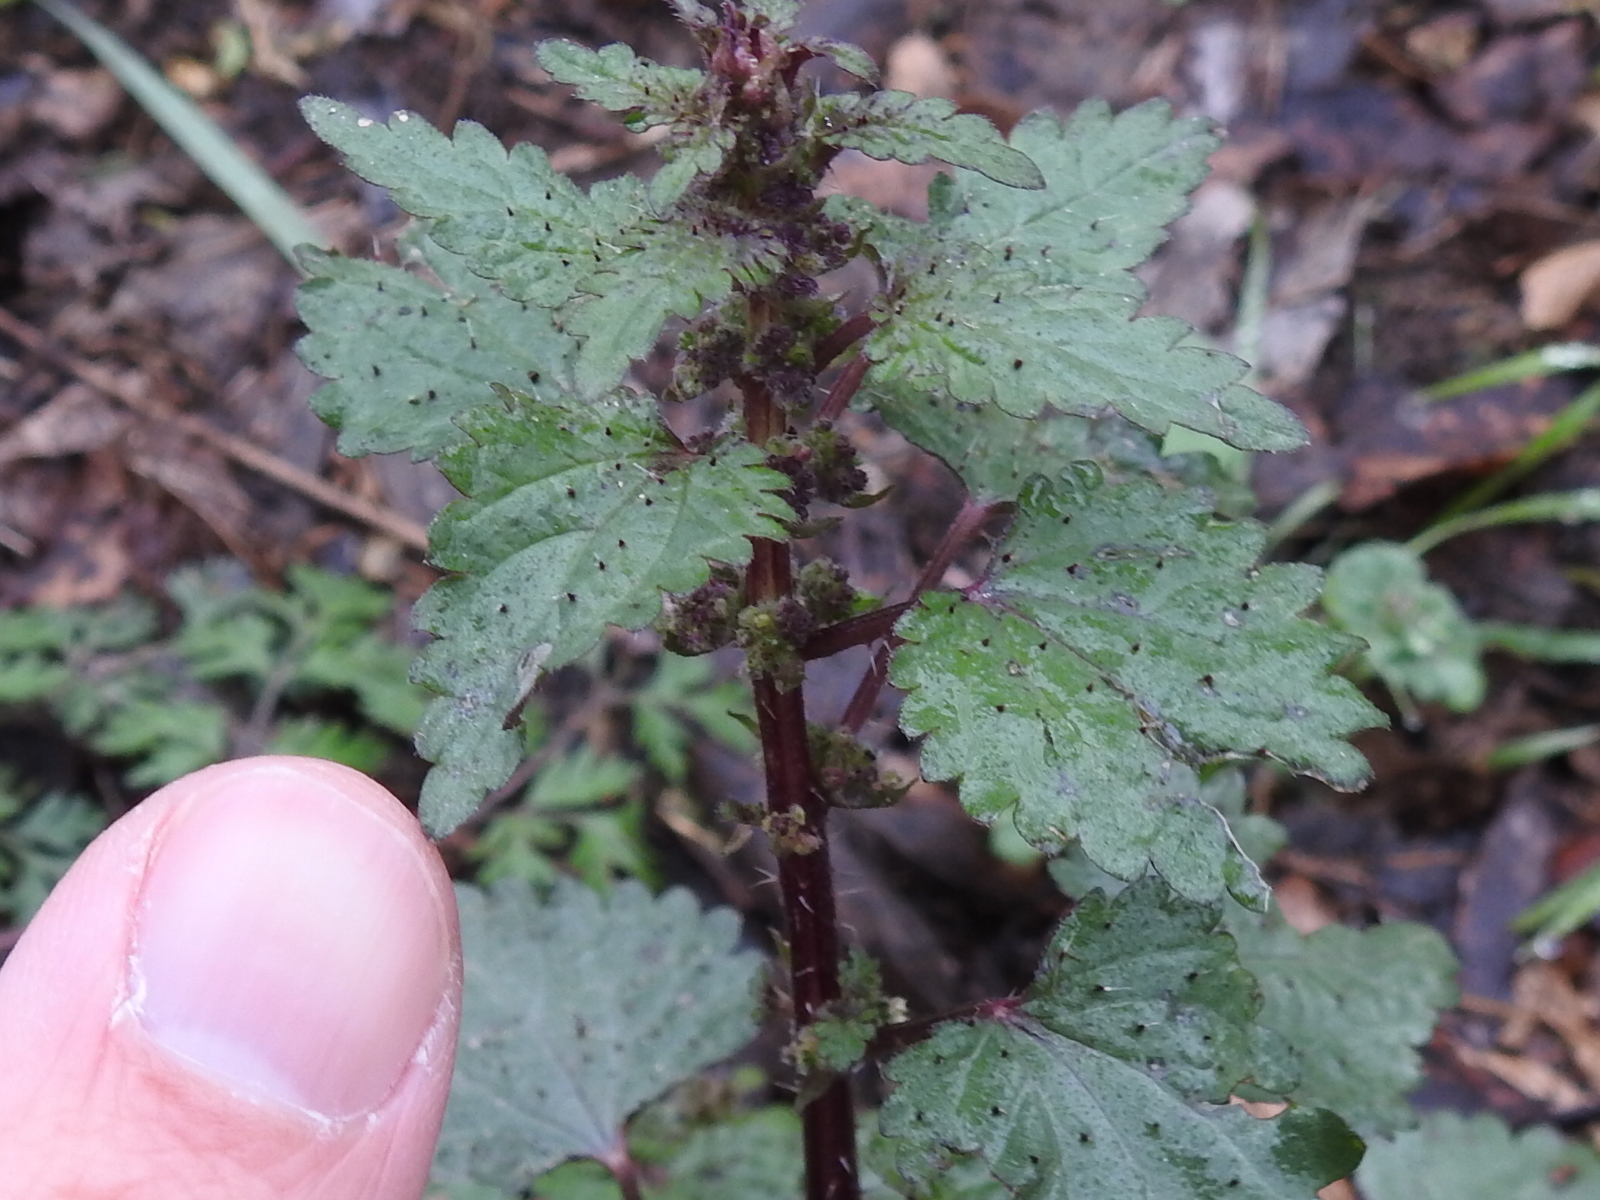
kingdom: Plantae
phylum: Tracheophyta
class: Magnoliopsida
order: Rosales
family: Urticaceae
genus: Urtica
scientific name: Urtica chamaedryoides
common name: Heart-leaf nettle
